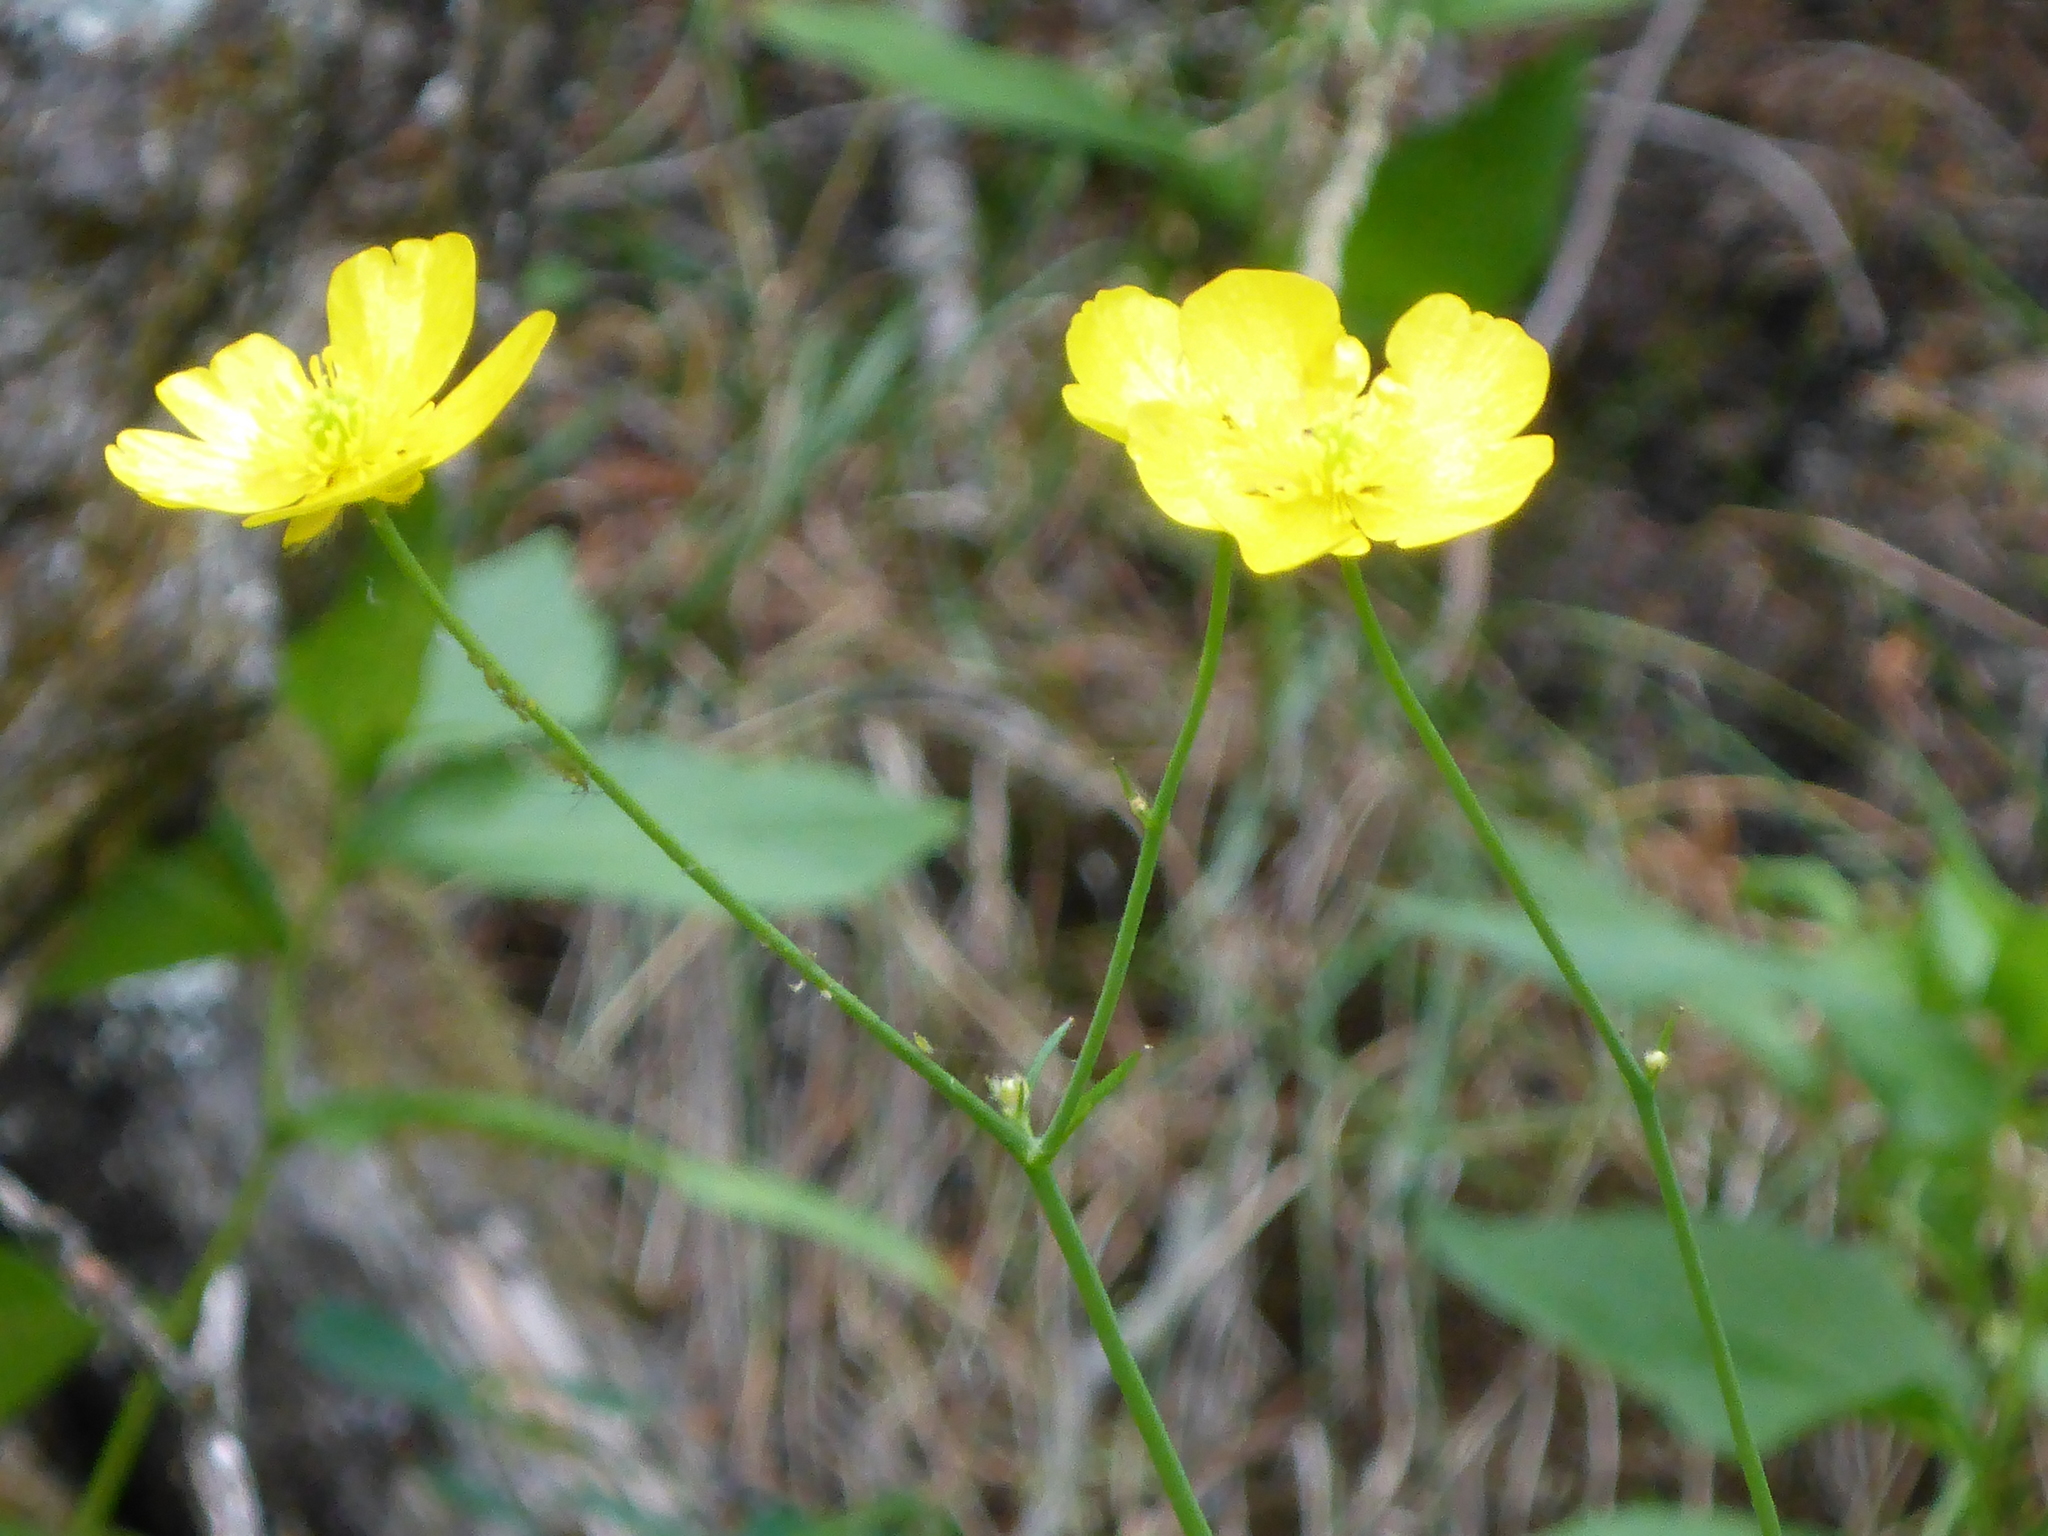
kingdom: Plantae
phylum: Tracheophyta
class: Magnoliopsida
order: Ranunculales
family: Ranunculaceae
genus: Ranunculus
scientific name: Ranunculus acris
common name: Meadow buttercup
